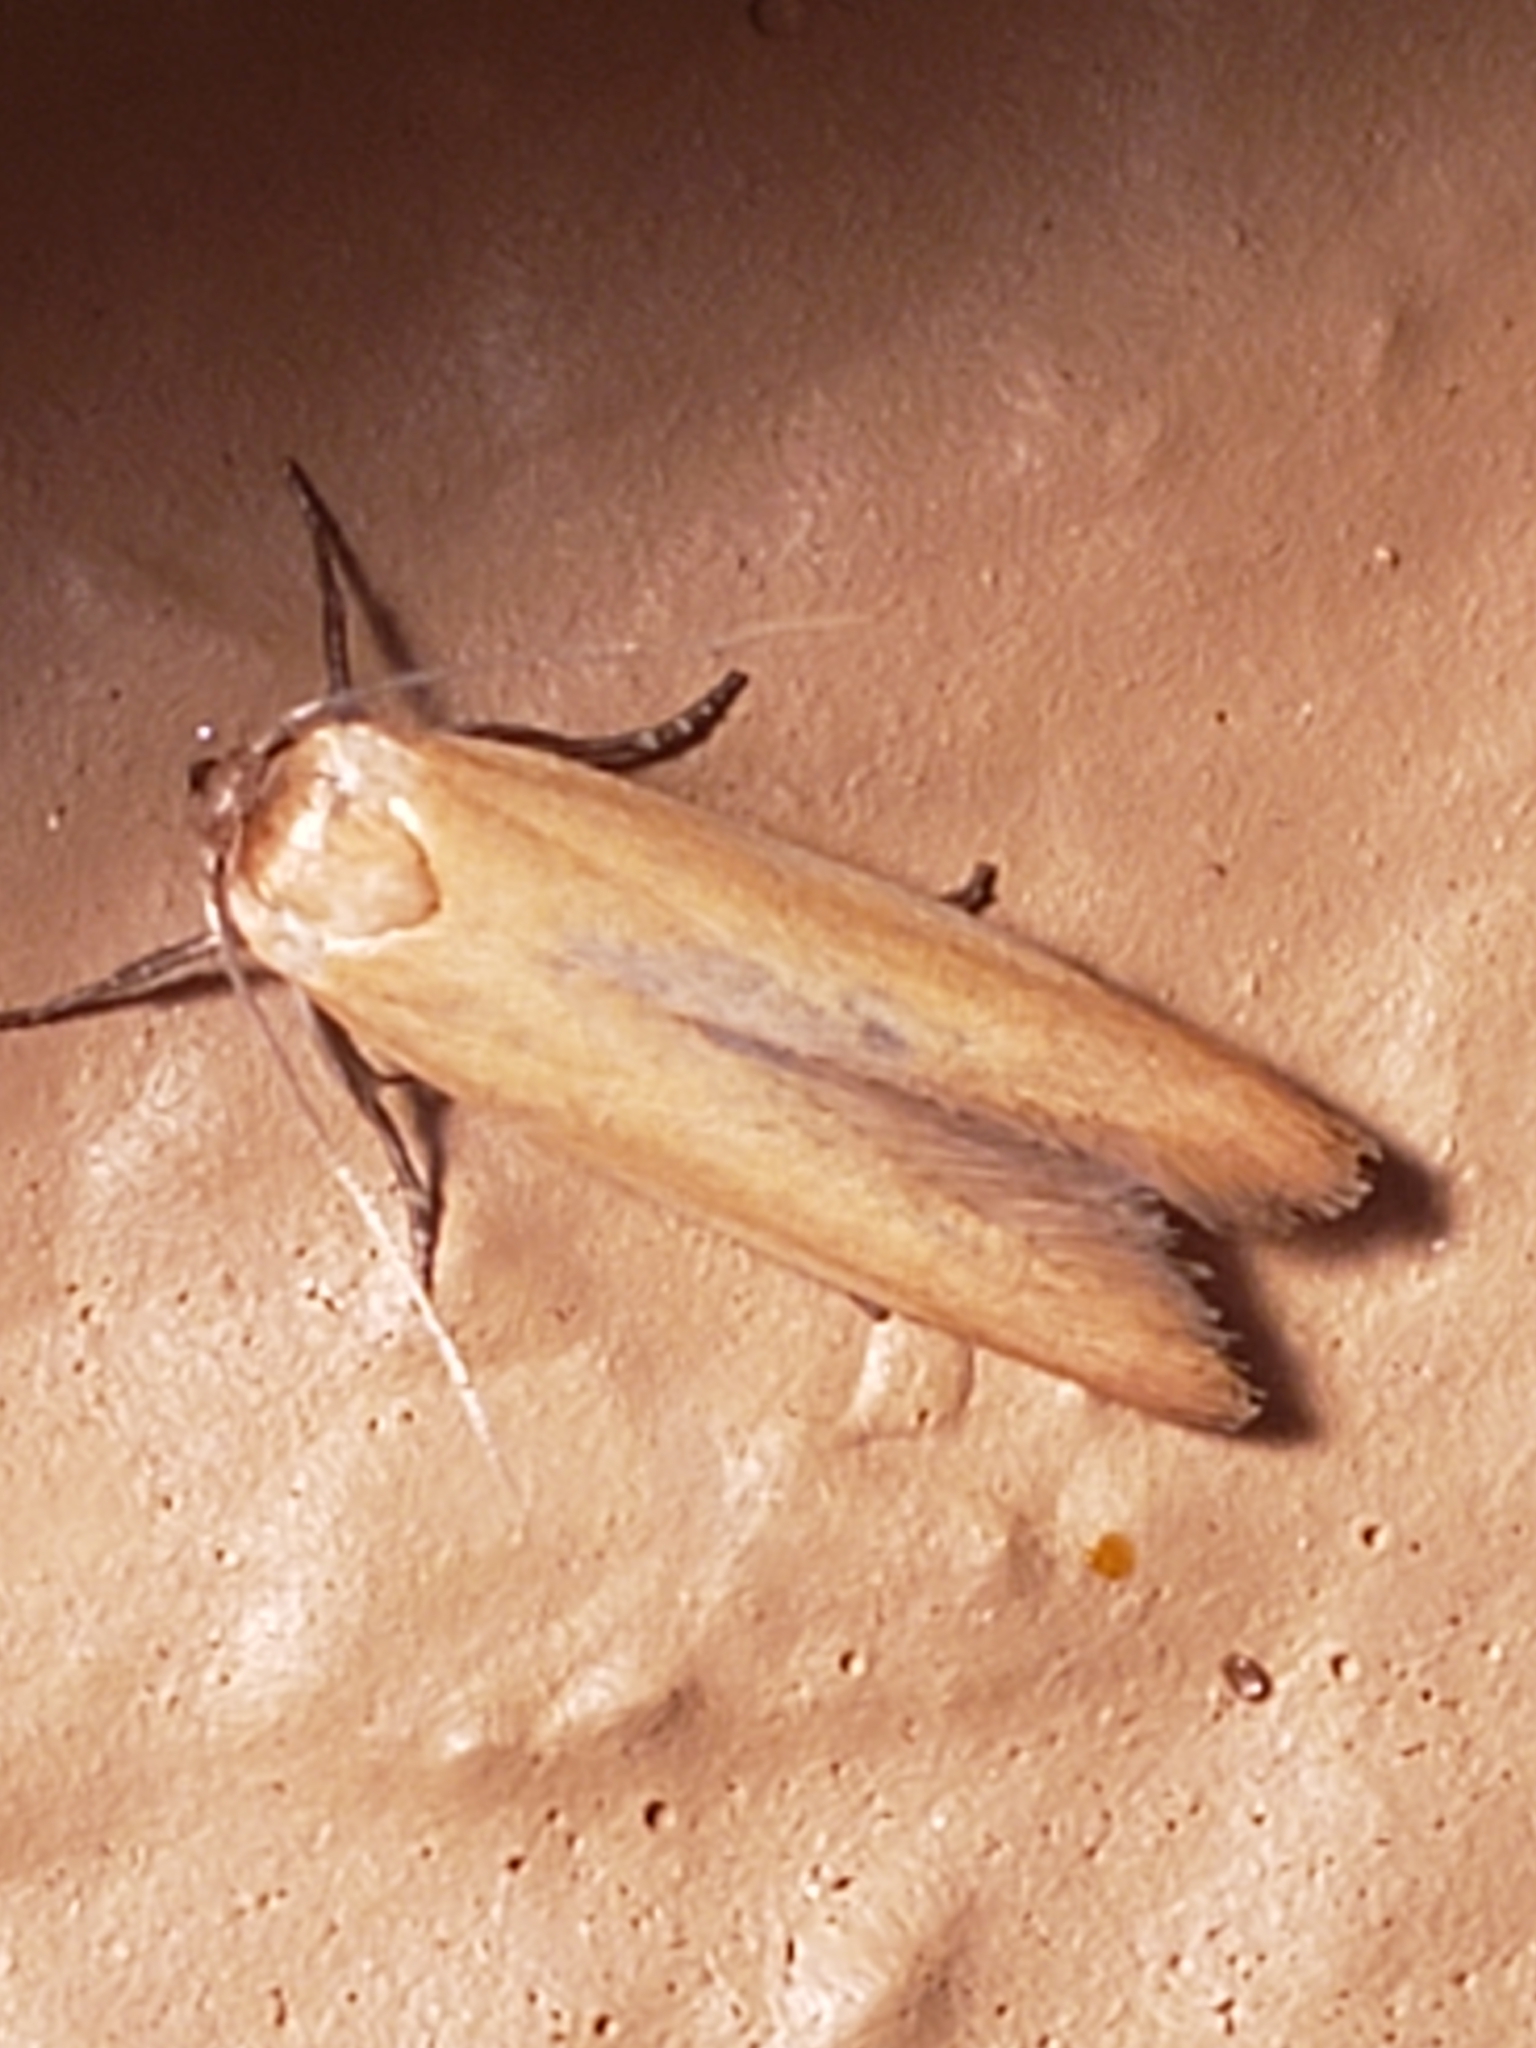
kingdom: Animalia
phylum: Arthropoda
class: Insecta
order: Lepidoptera
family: Blastobasidae
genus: Holcocerina
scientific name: Holcocerina immaculella
